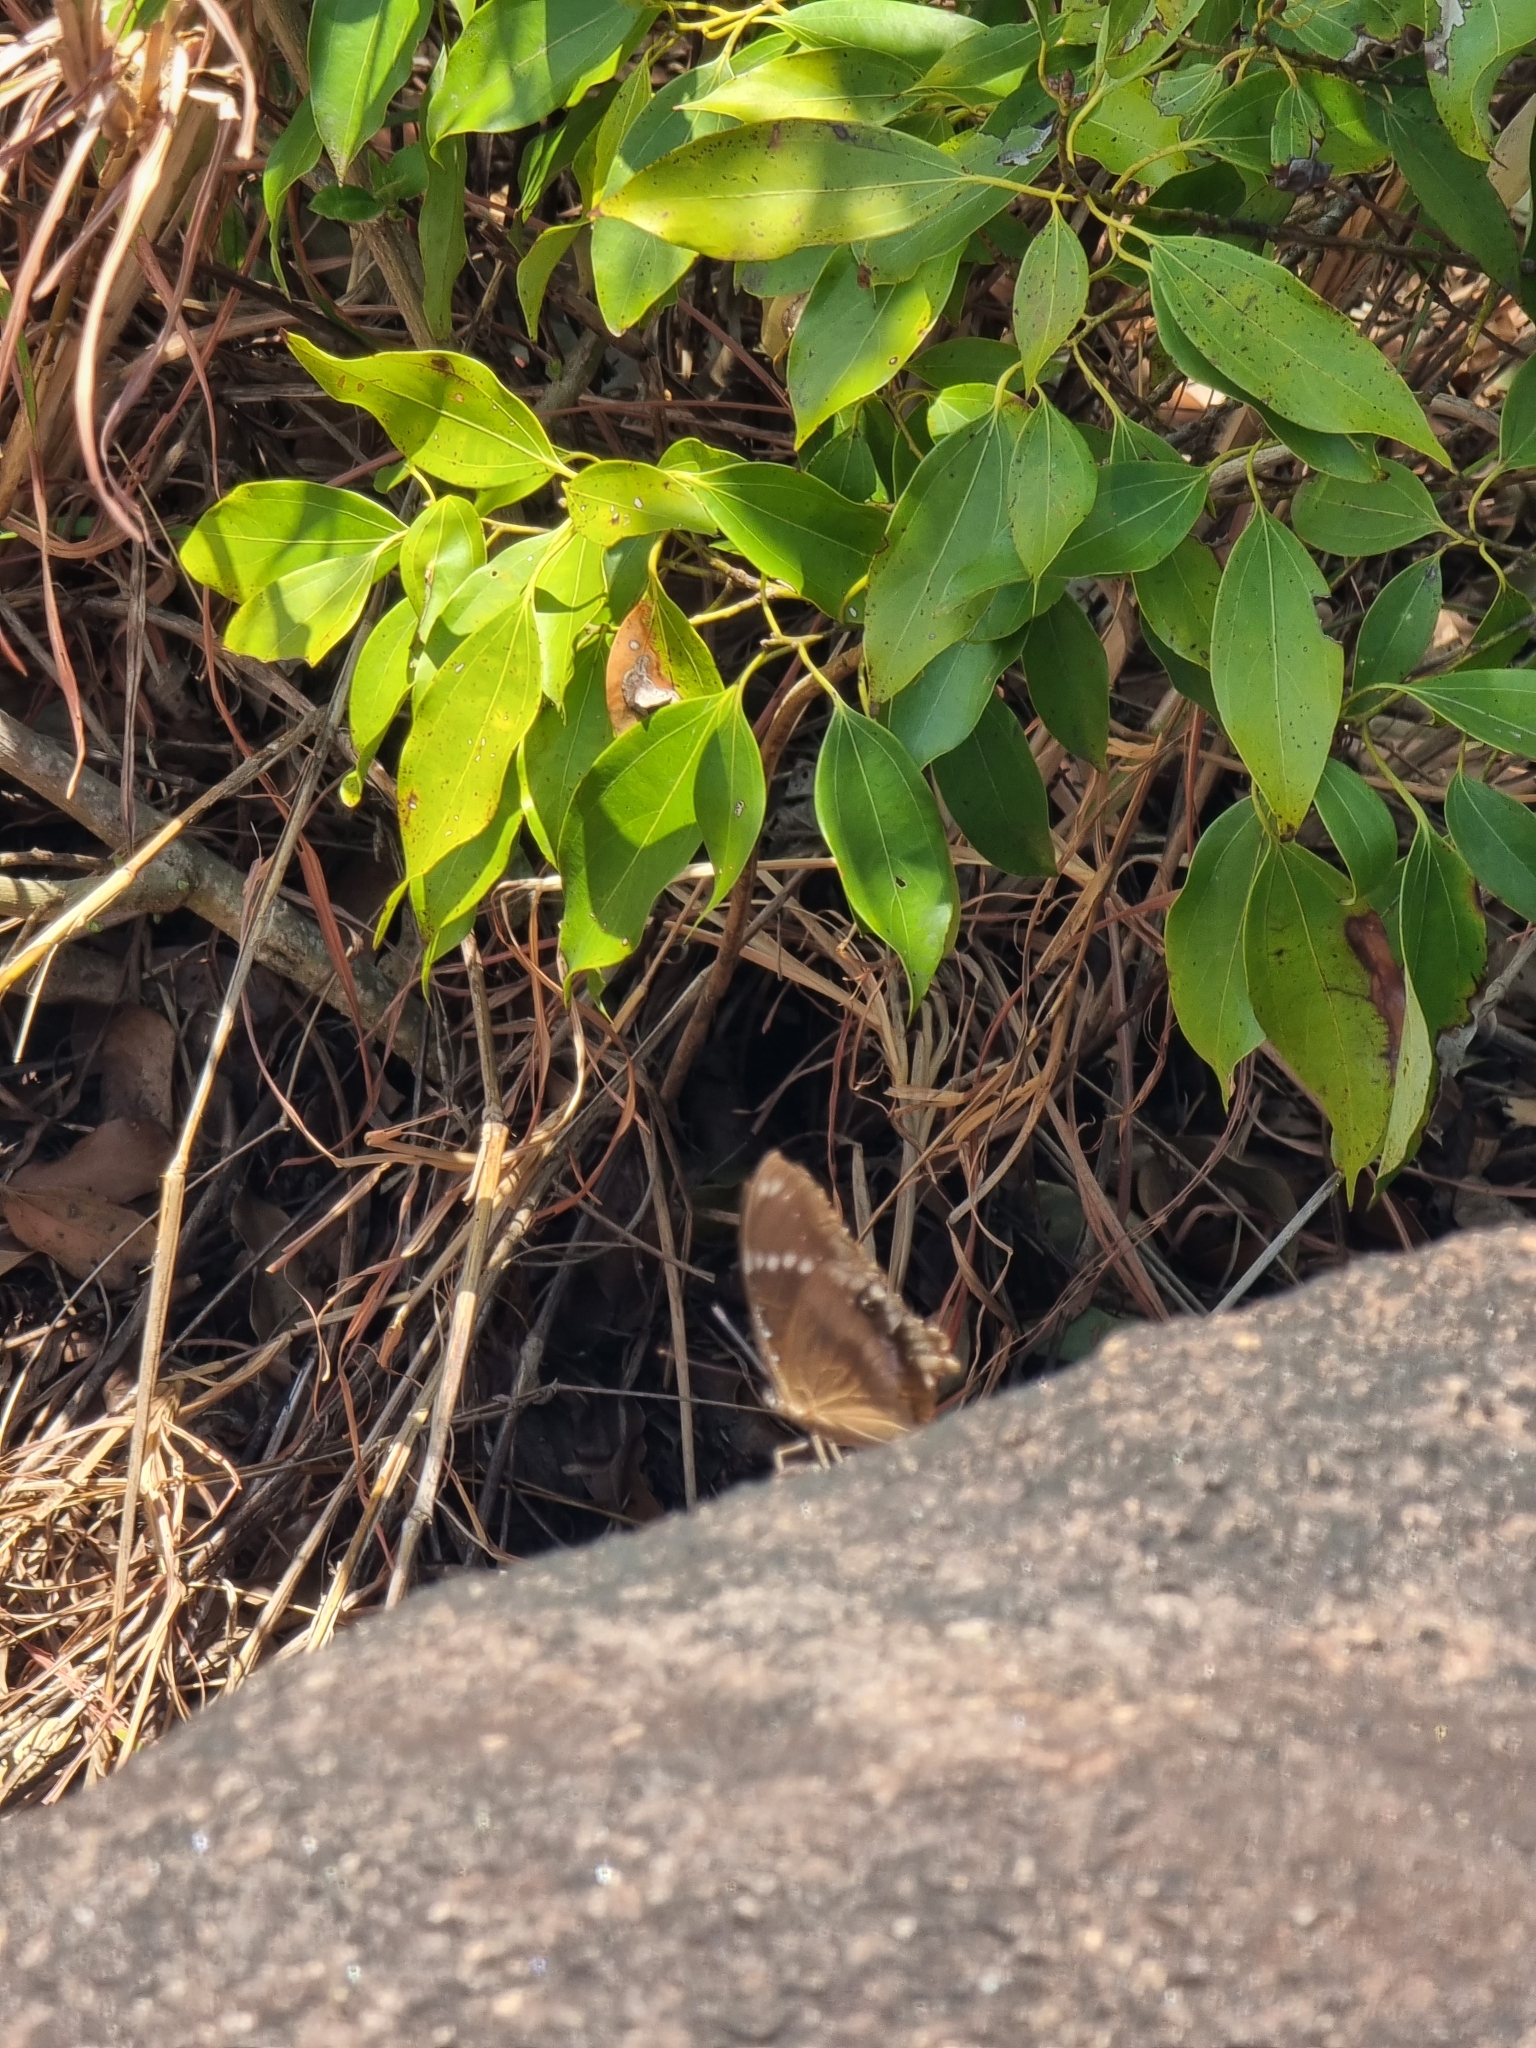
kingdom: Animalia
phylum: Arthropoda
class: Insecta
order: Lepidoptera
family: Nymphalidae
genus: Hypolimnas
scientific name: Hypolimnas bolina
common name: Great eggfly
